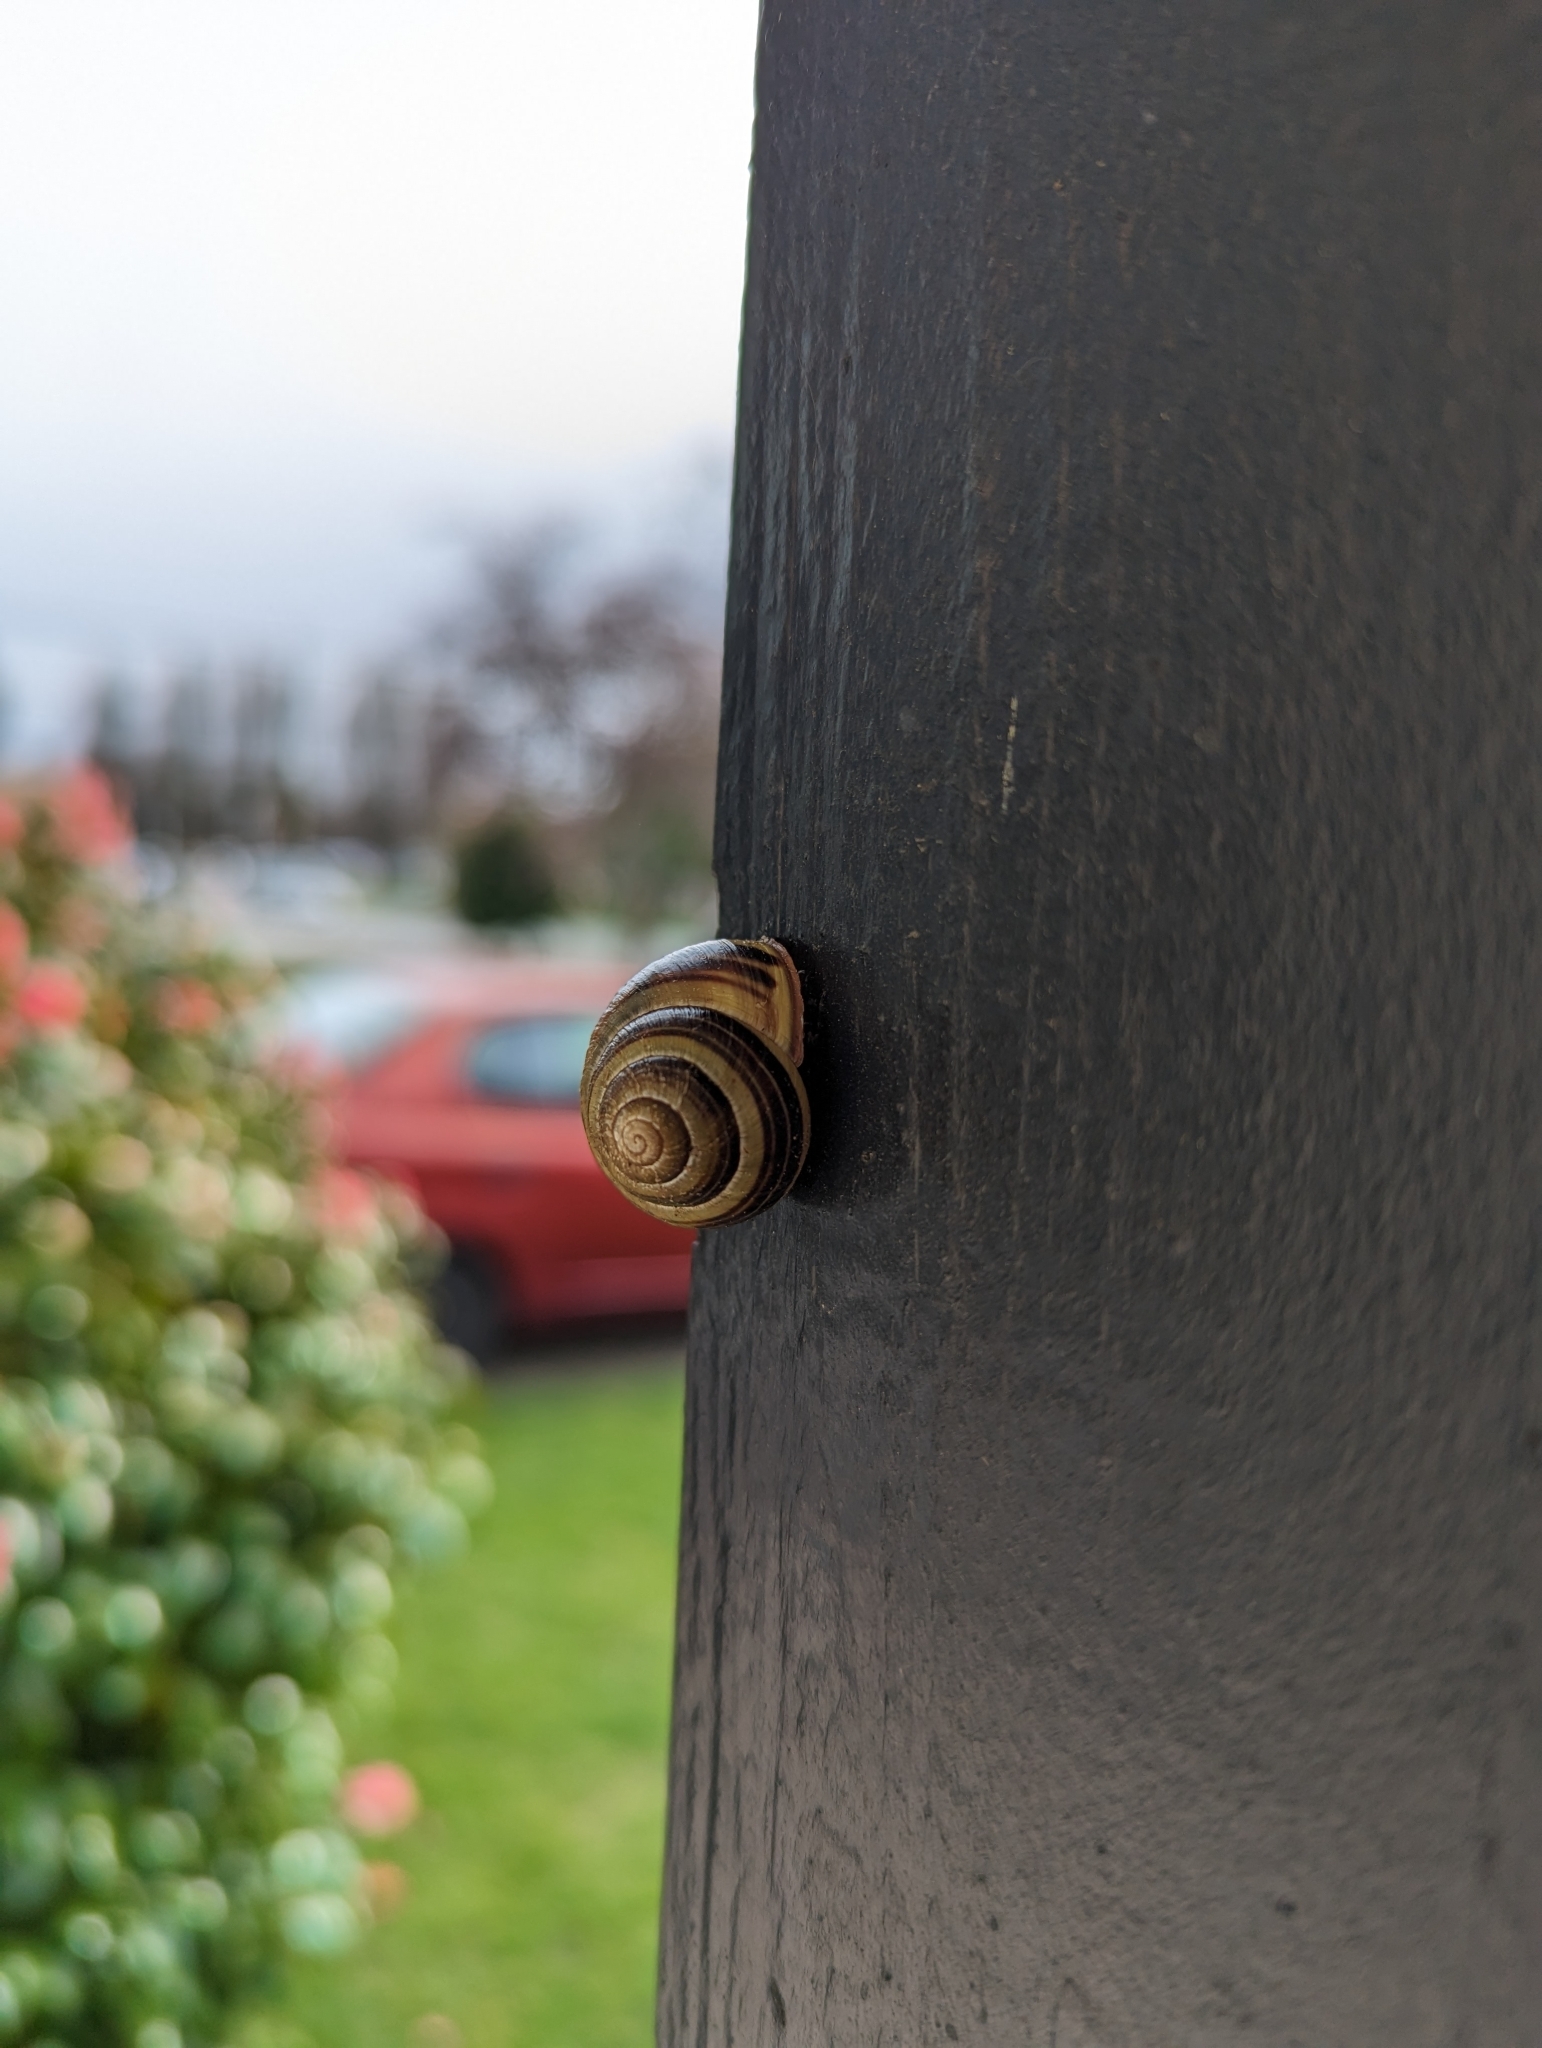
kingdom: Animalia
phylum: Mollusca
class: Gastropoda
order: Stylommatophora
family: Helicidae
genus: Cepaea
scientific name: Cepaea nemoralis
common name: Grovesnail
